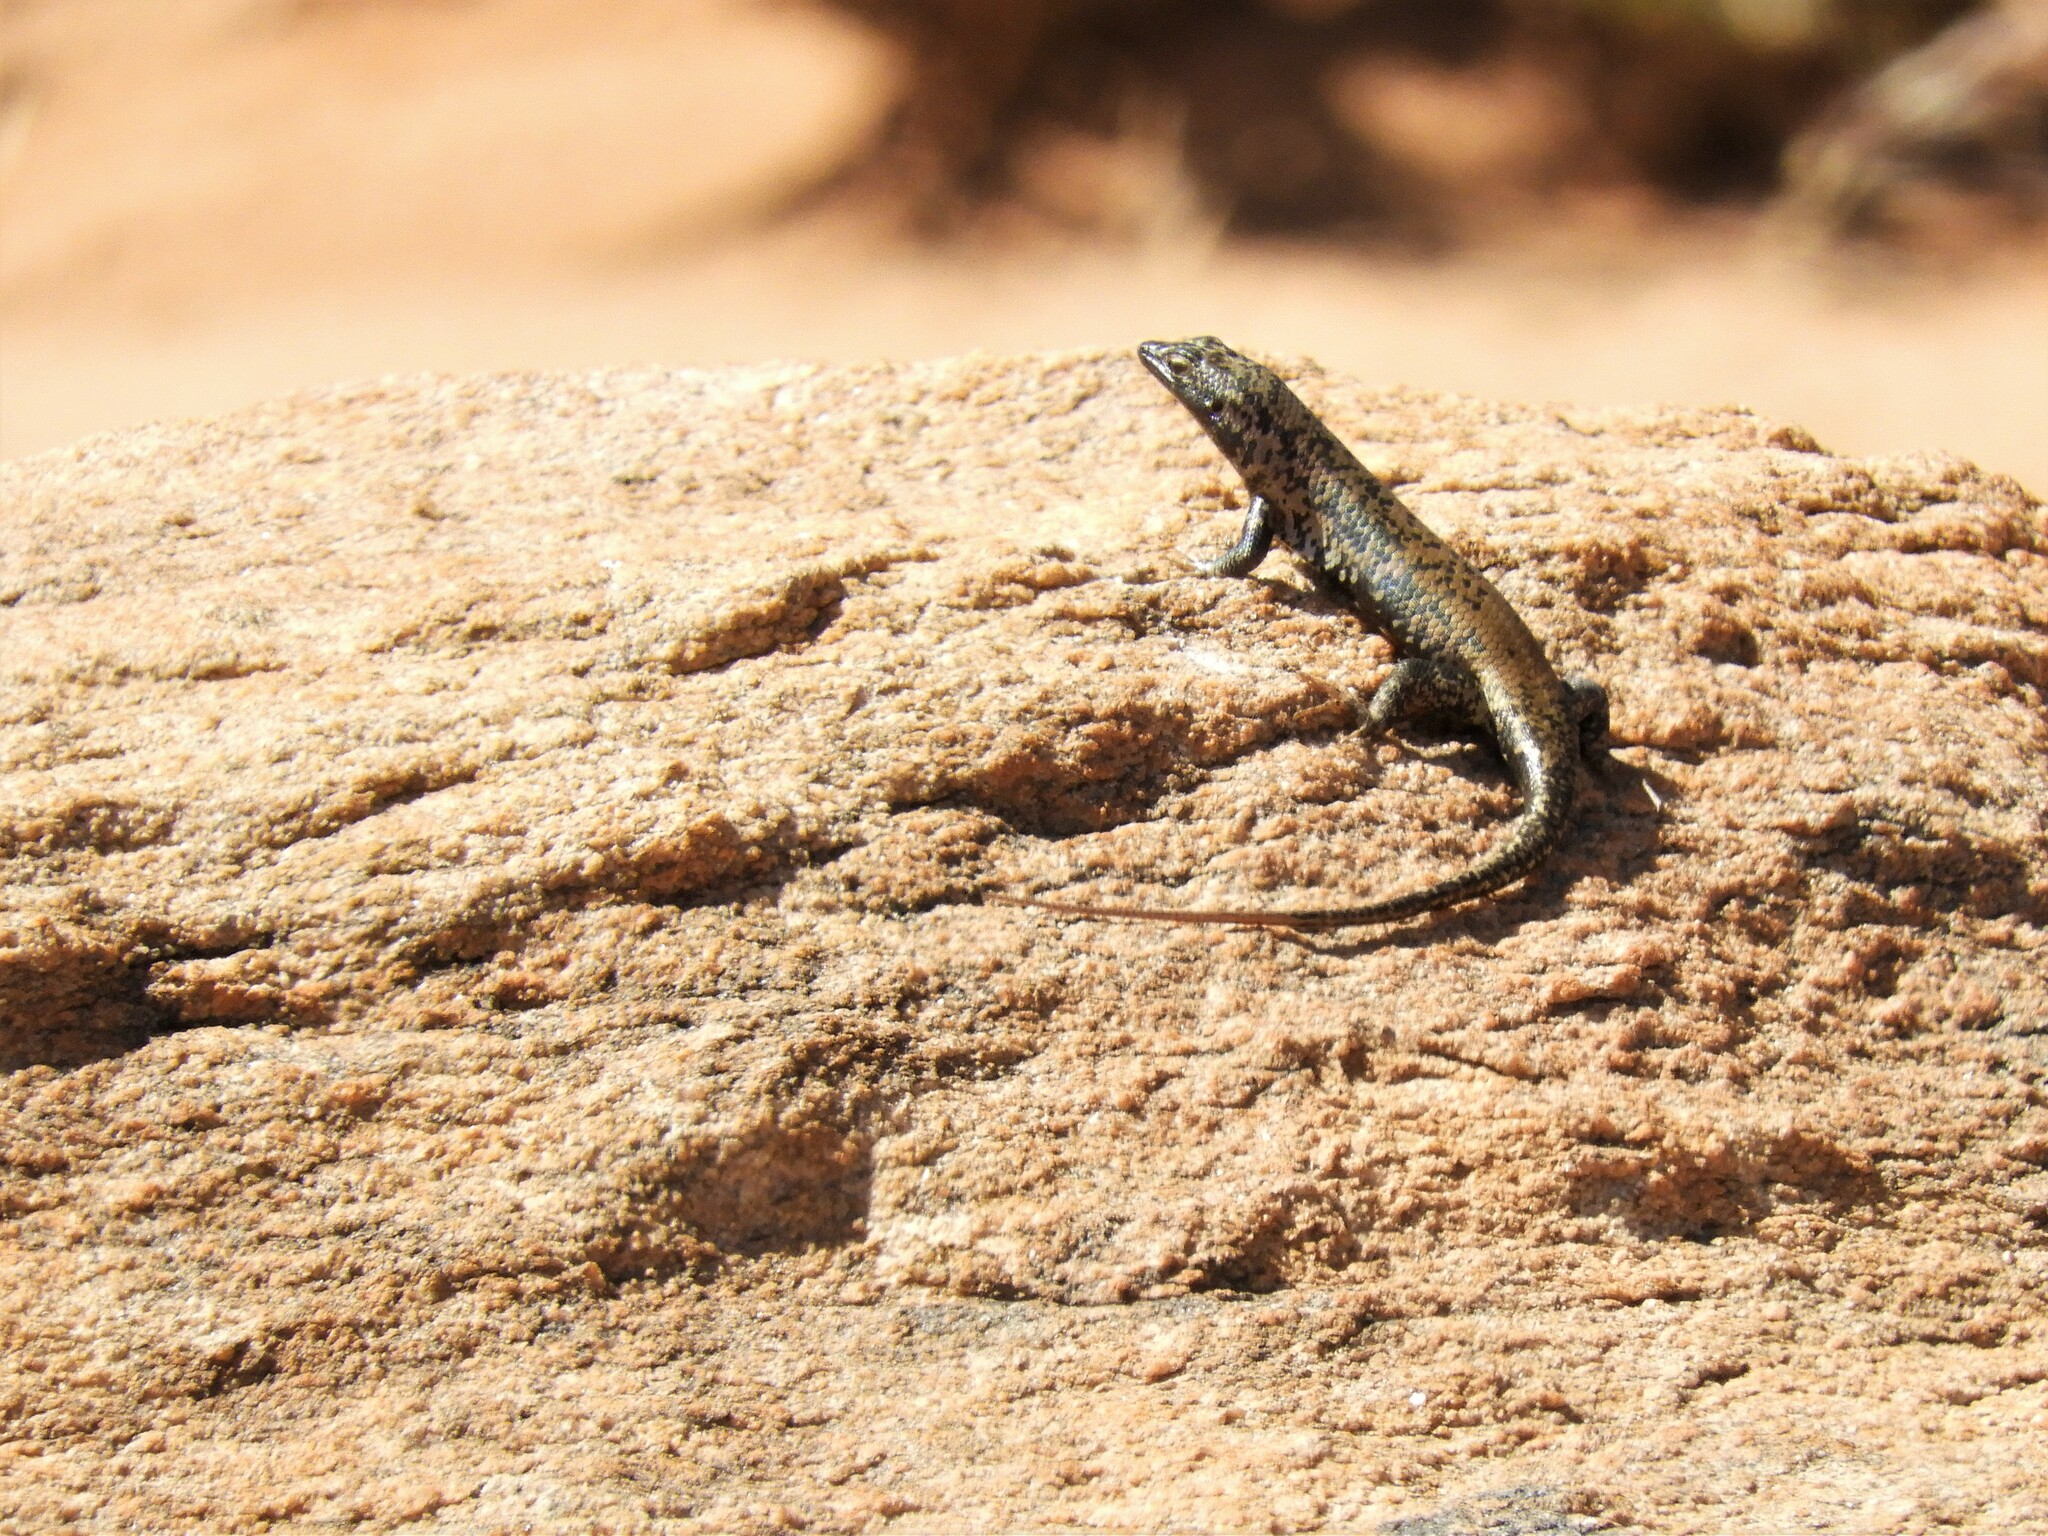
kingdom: Animalia
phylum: Chordata
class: Squamata
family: Scincidae
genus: Trachylepis
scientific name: Trachylepis sulcata
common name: Western rock skink
